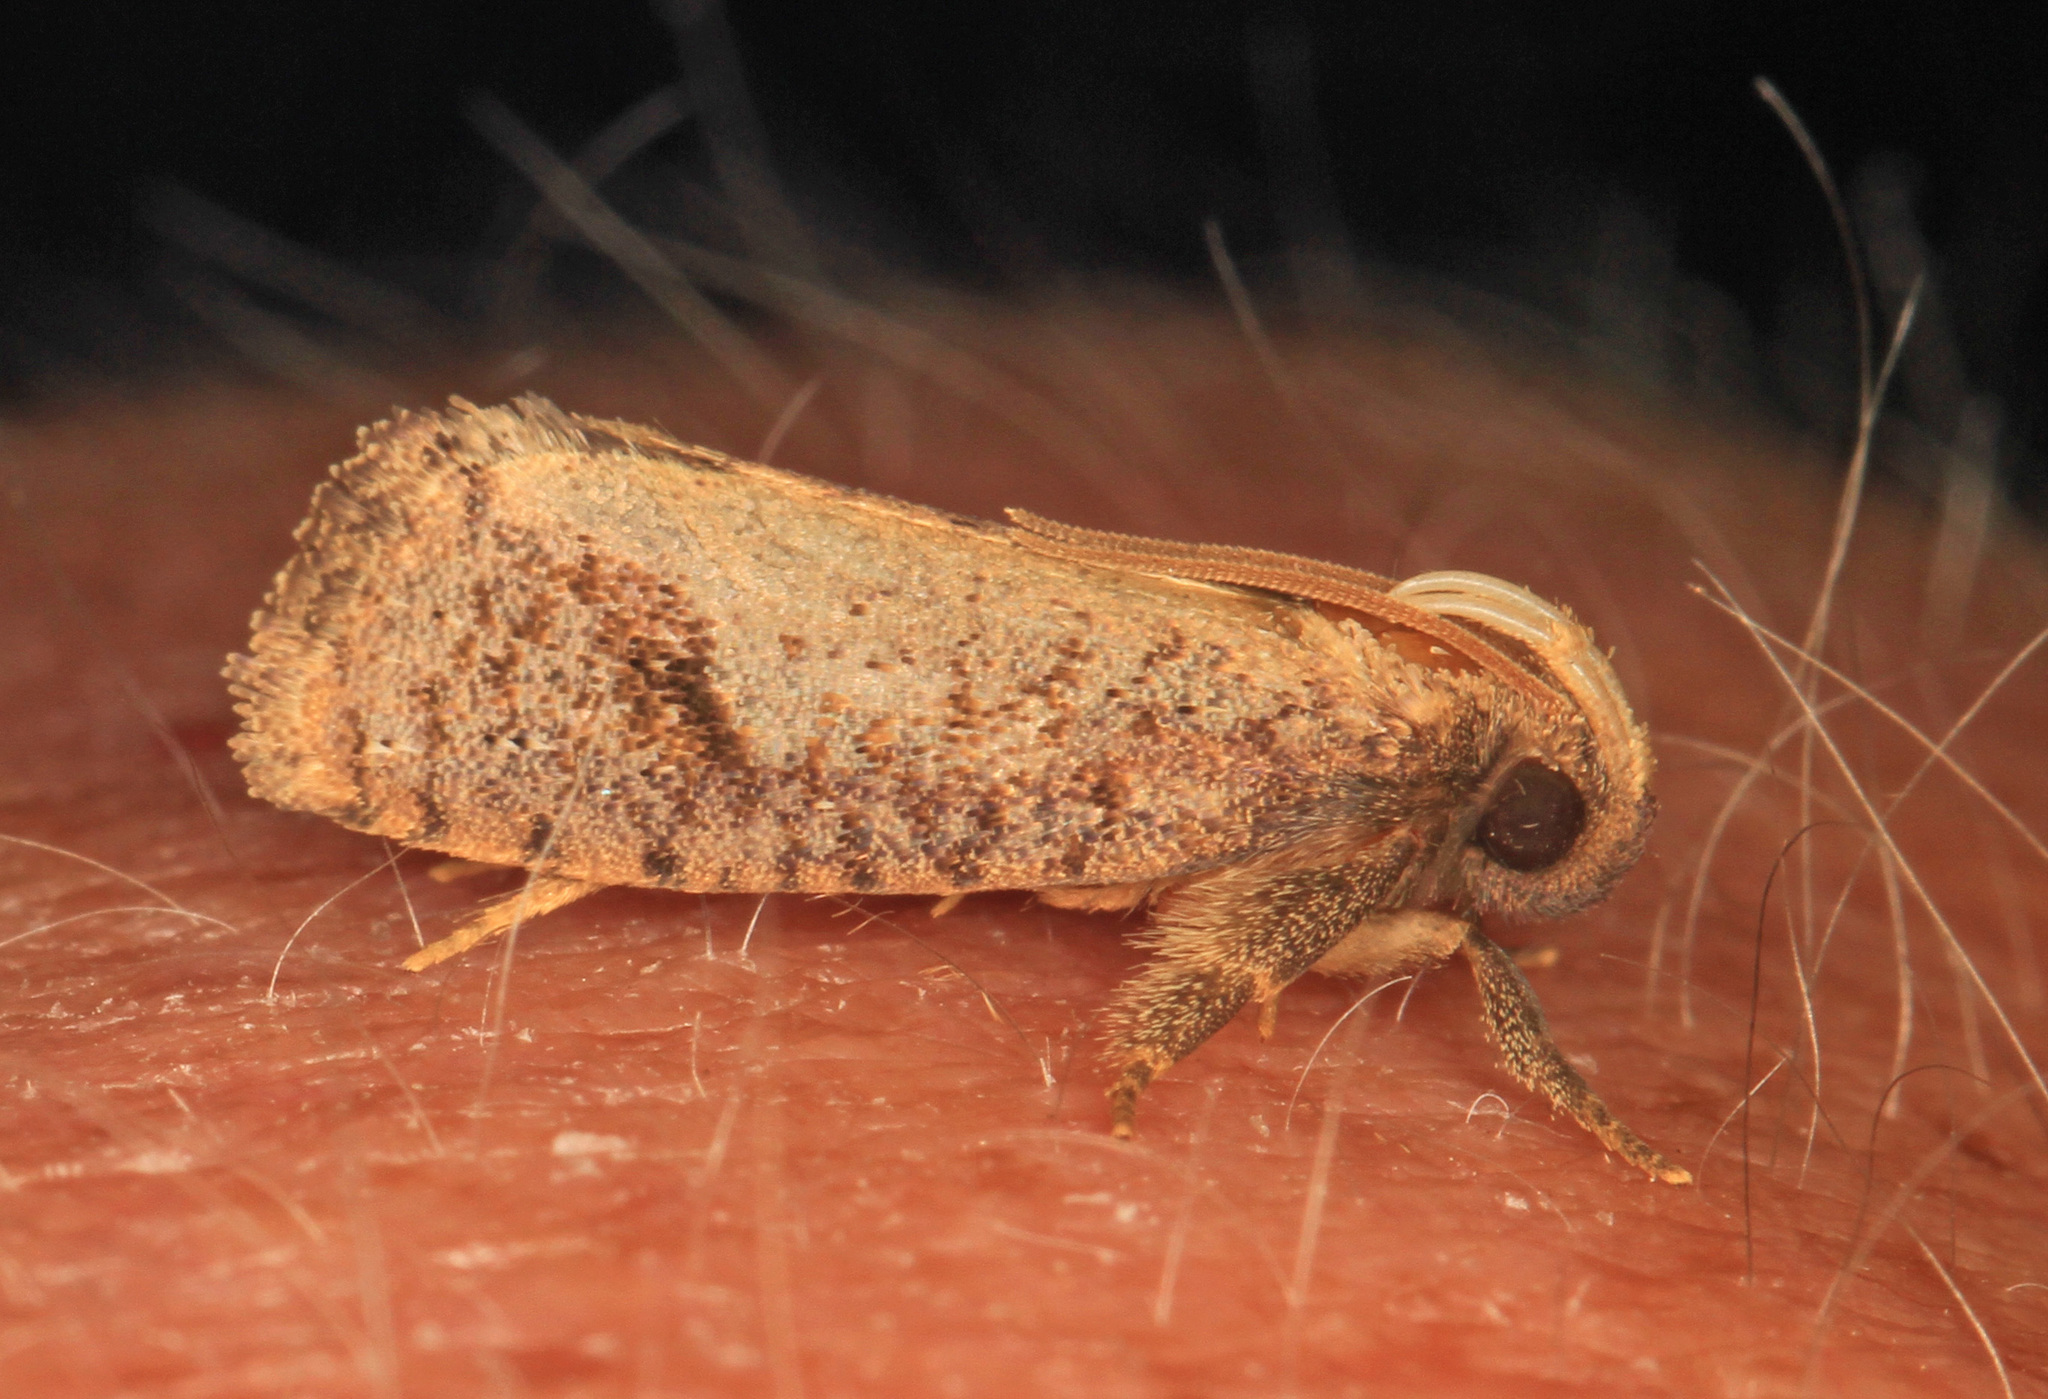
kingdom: Animalia
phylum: Arthropoda
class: Insecta
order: Lepidoptera
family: Tineidae
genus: Acrolophus
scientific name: Acrolophus texanella
